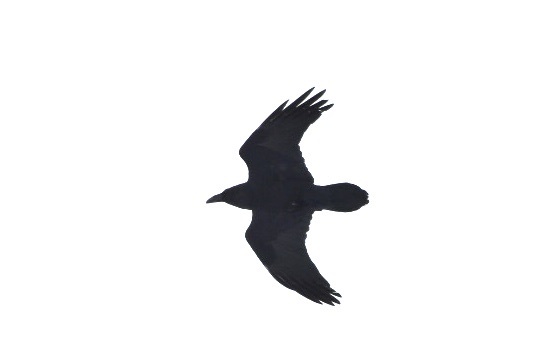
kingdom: Animalia
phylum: Chordata
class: Aves
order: Passeriformes
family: Corvidae
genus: Corvus
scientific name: Corvus corax
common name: Common raven
